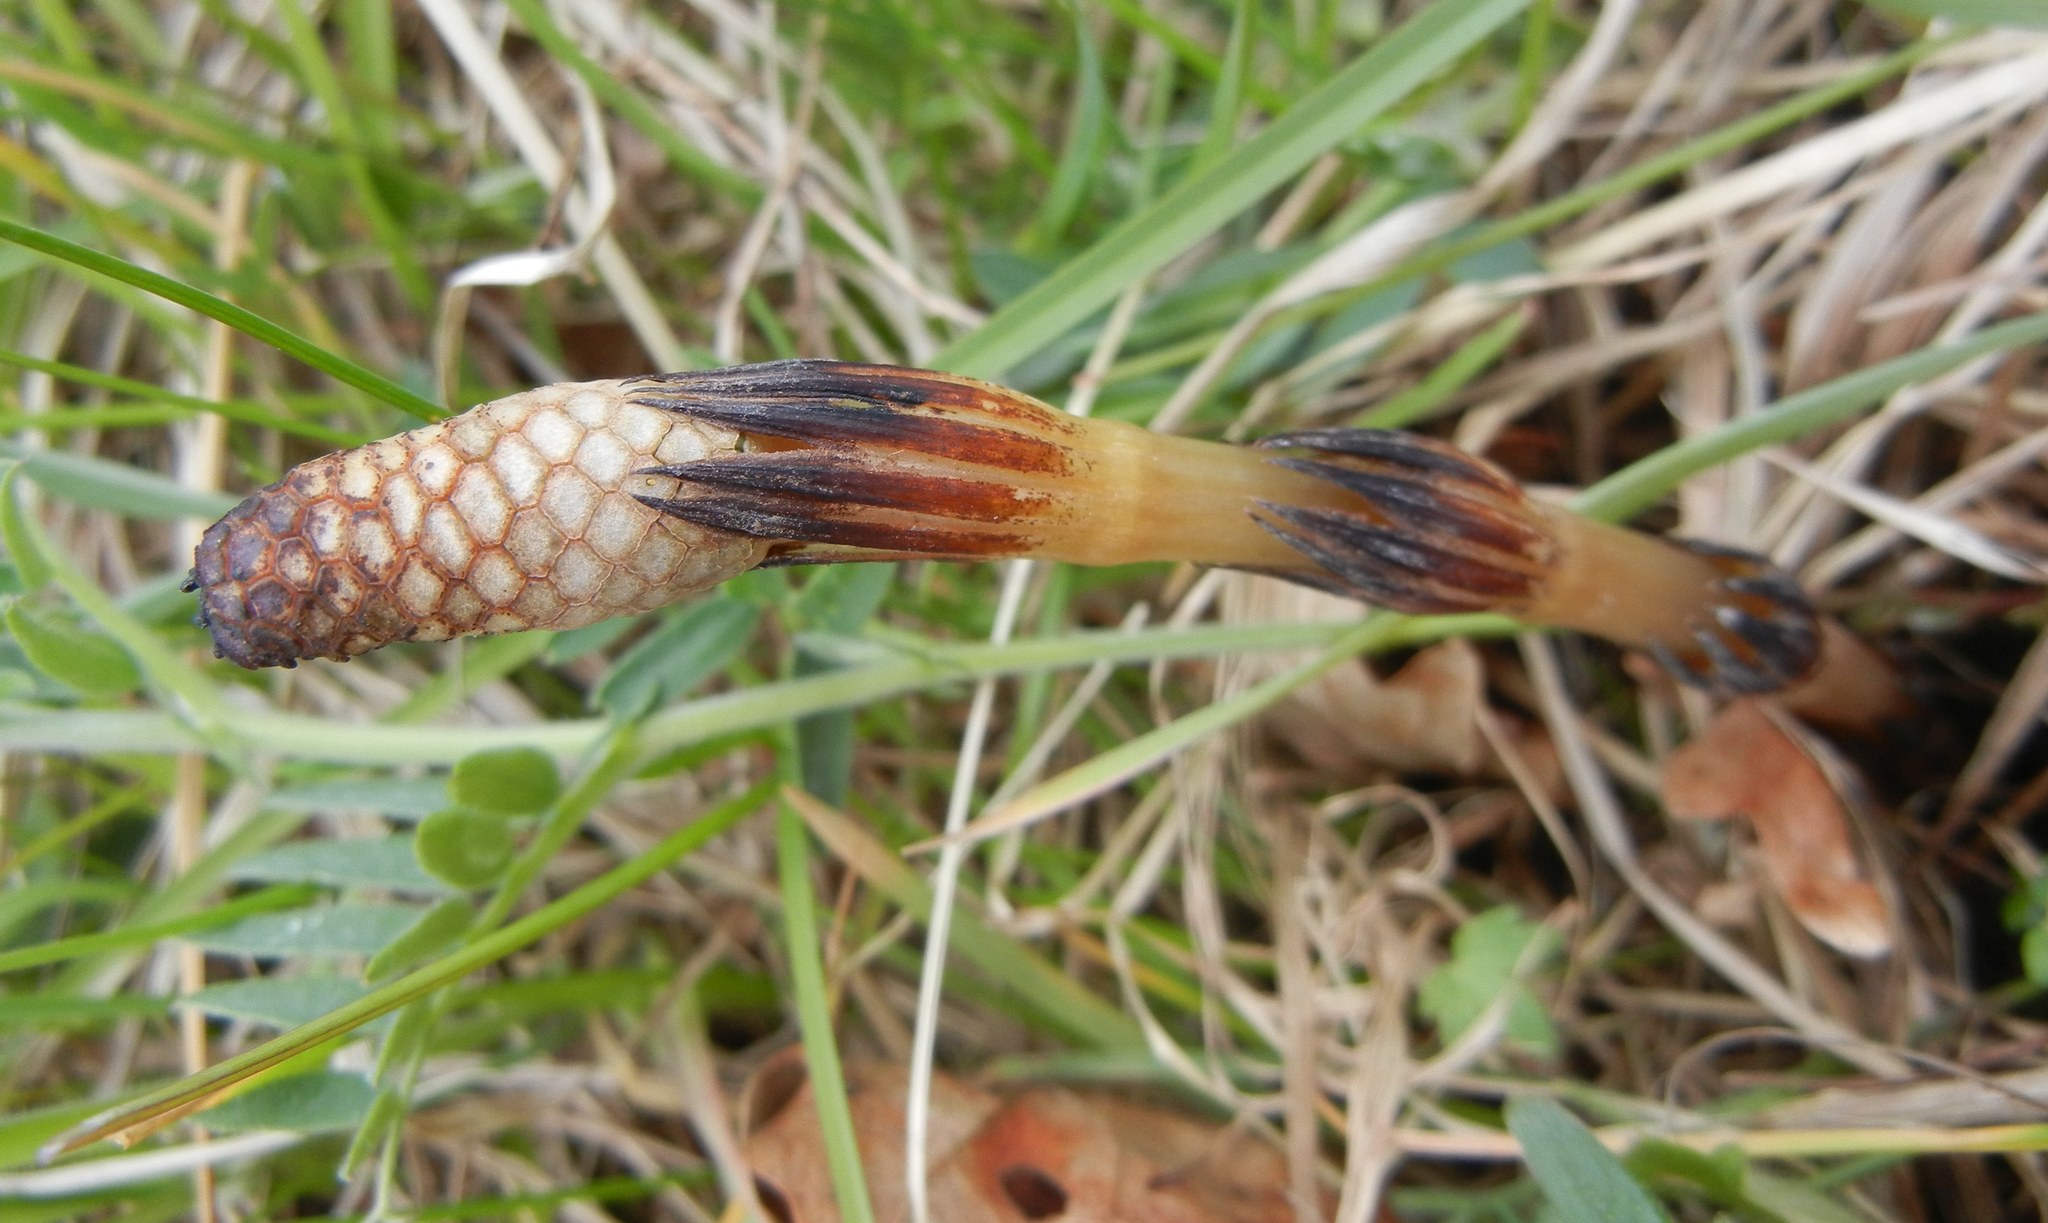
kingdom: Plantae
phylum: Tracheophyta
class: Polypodiopsida
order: Equisetales
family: Equisetaceae
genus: Equisetum
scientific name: Equisetum arvense
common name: Field horsetail
